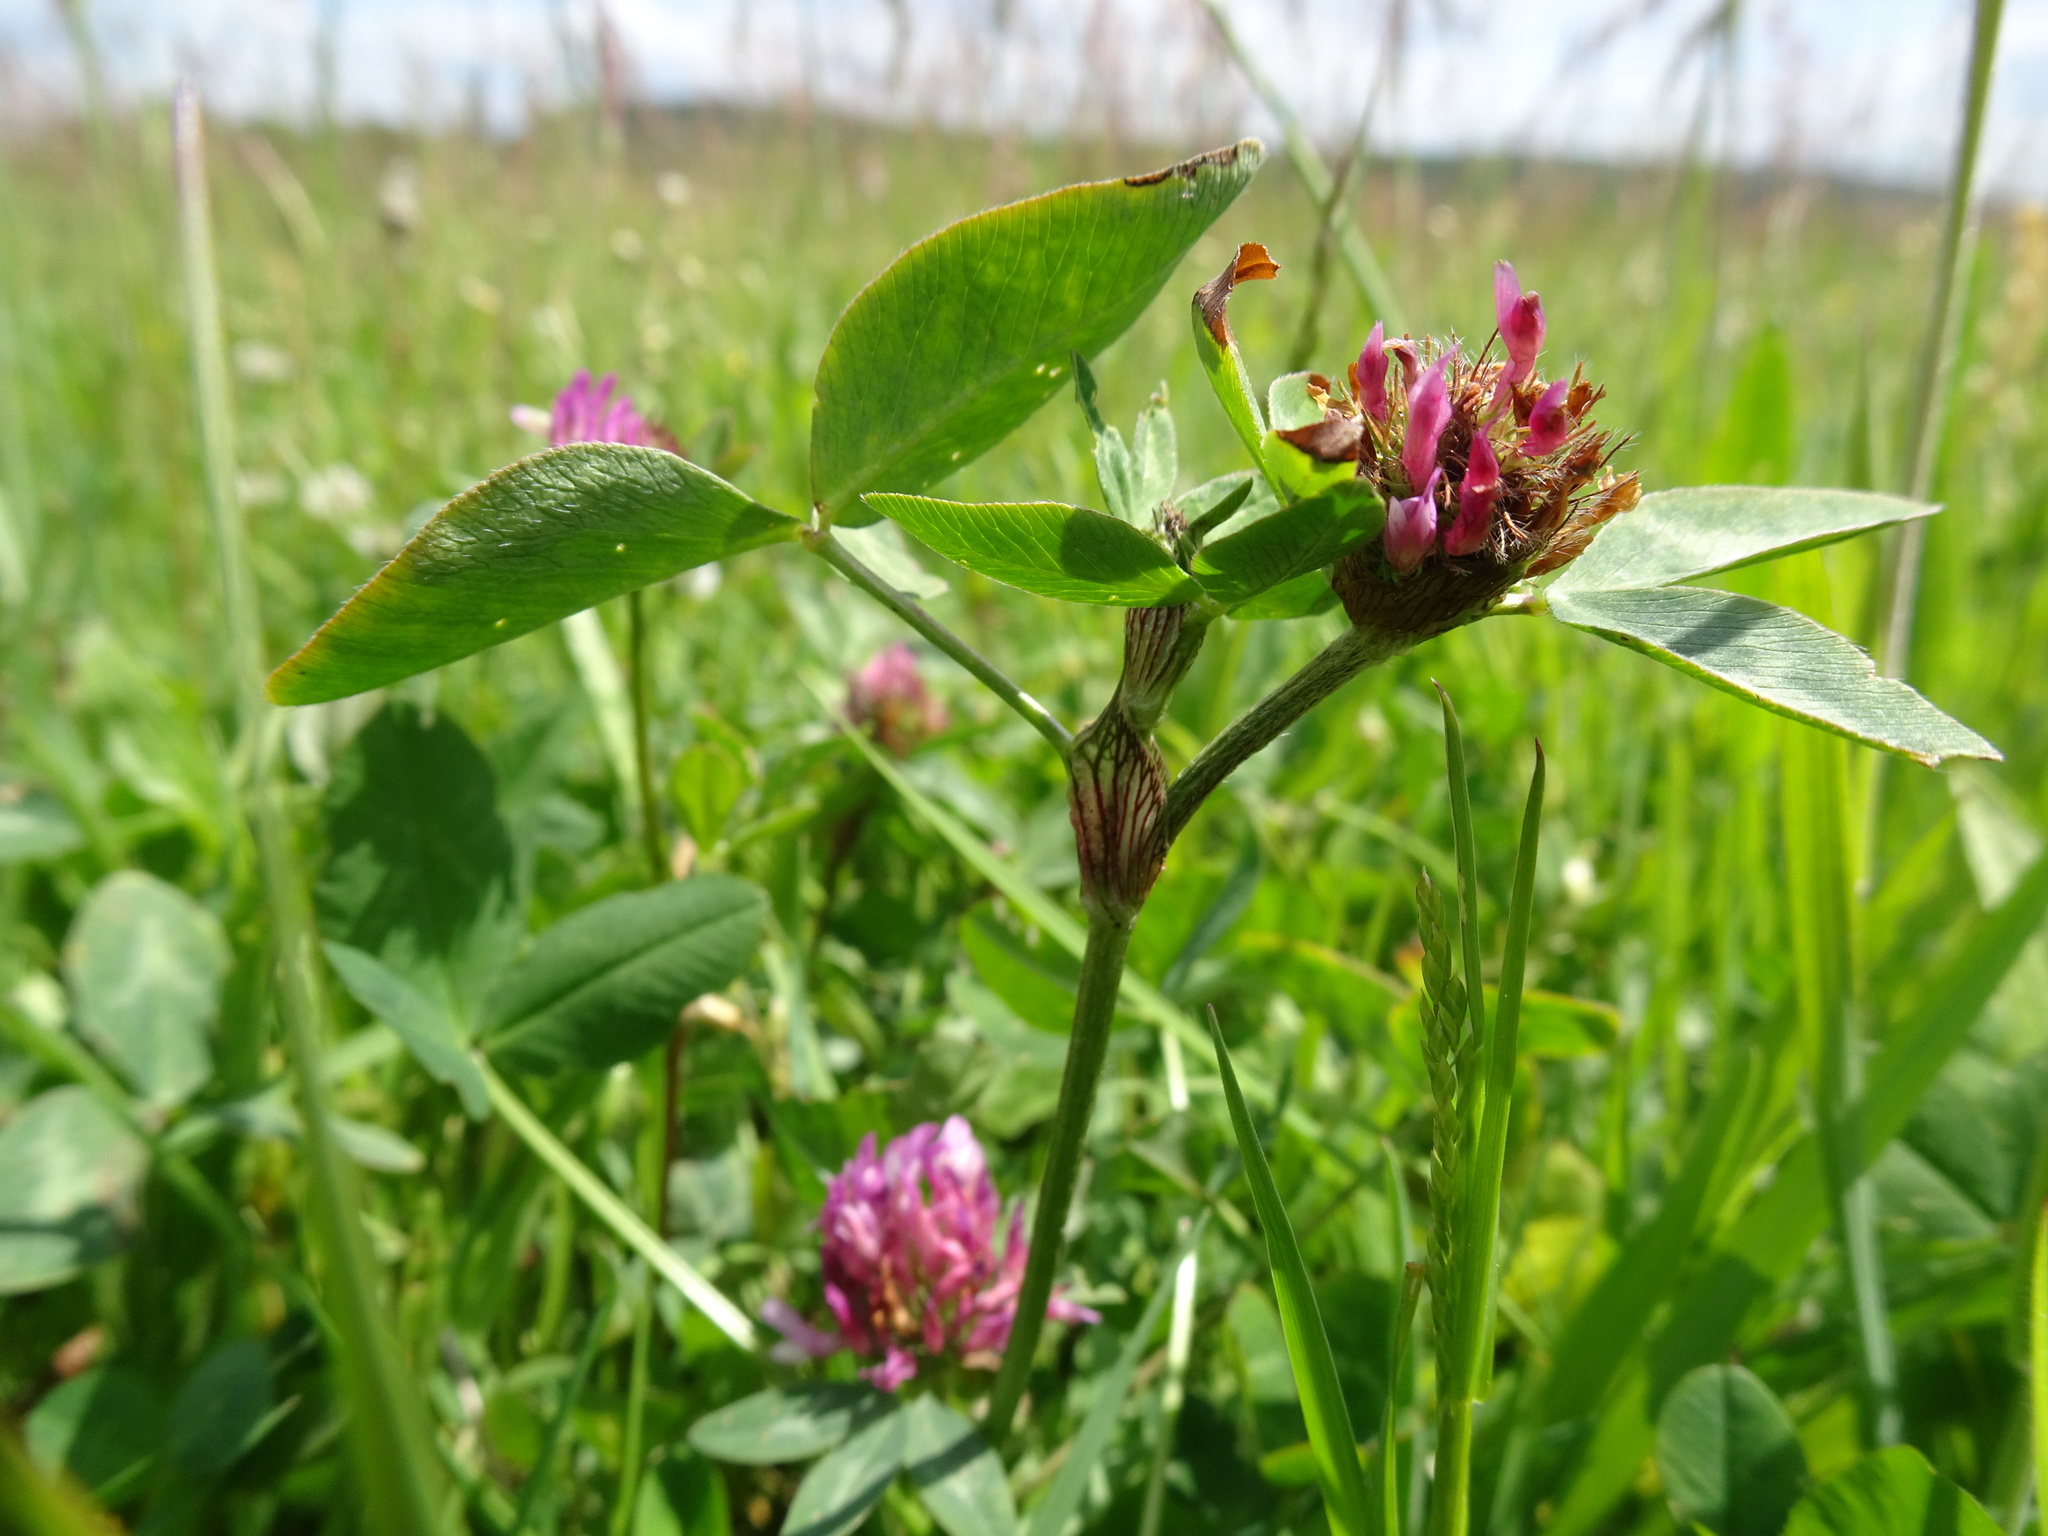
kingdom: Plantae
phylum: Tracheophyta
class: Magnoliopsida
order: Fabales
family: Fabaceae
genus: Trifolium
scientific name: Trifolium pratense
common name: Red clover
